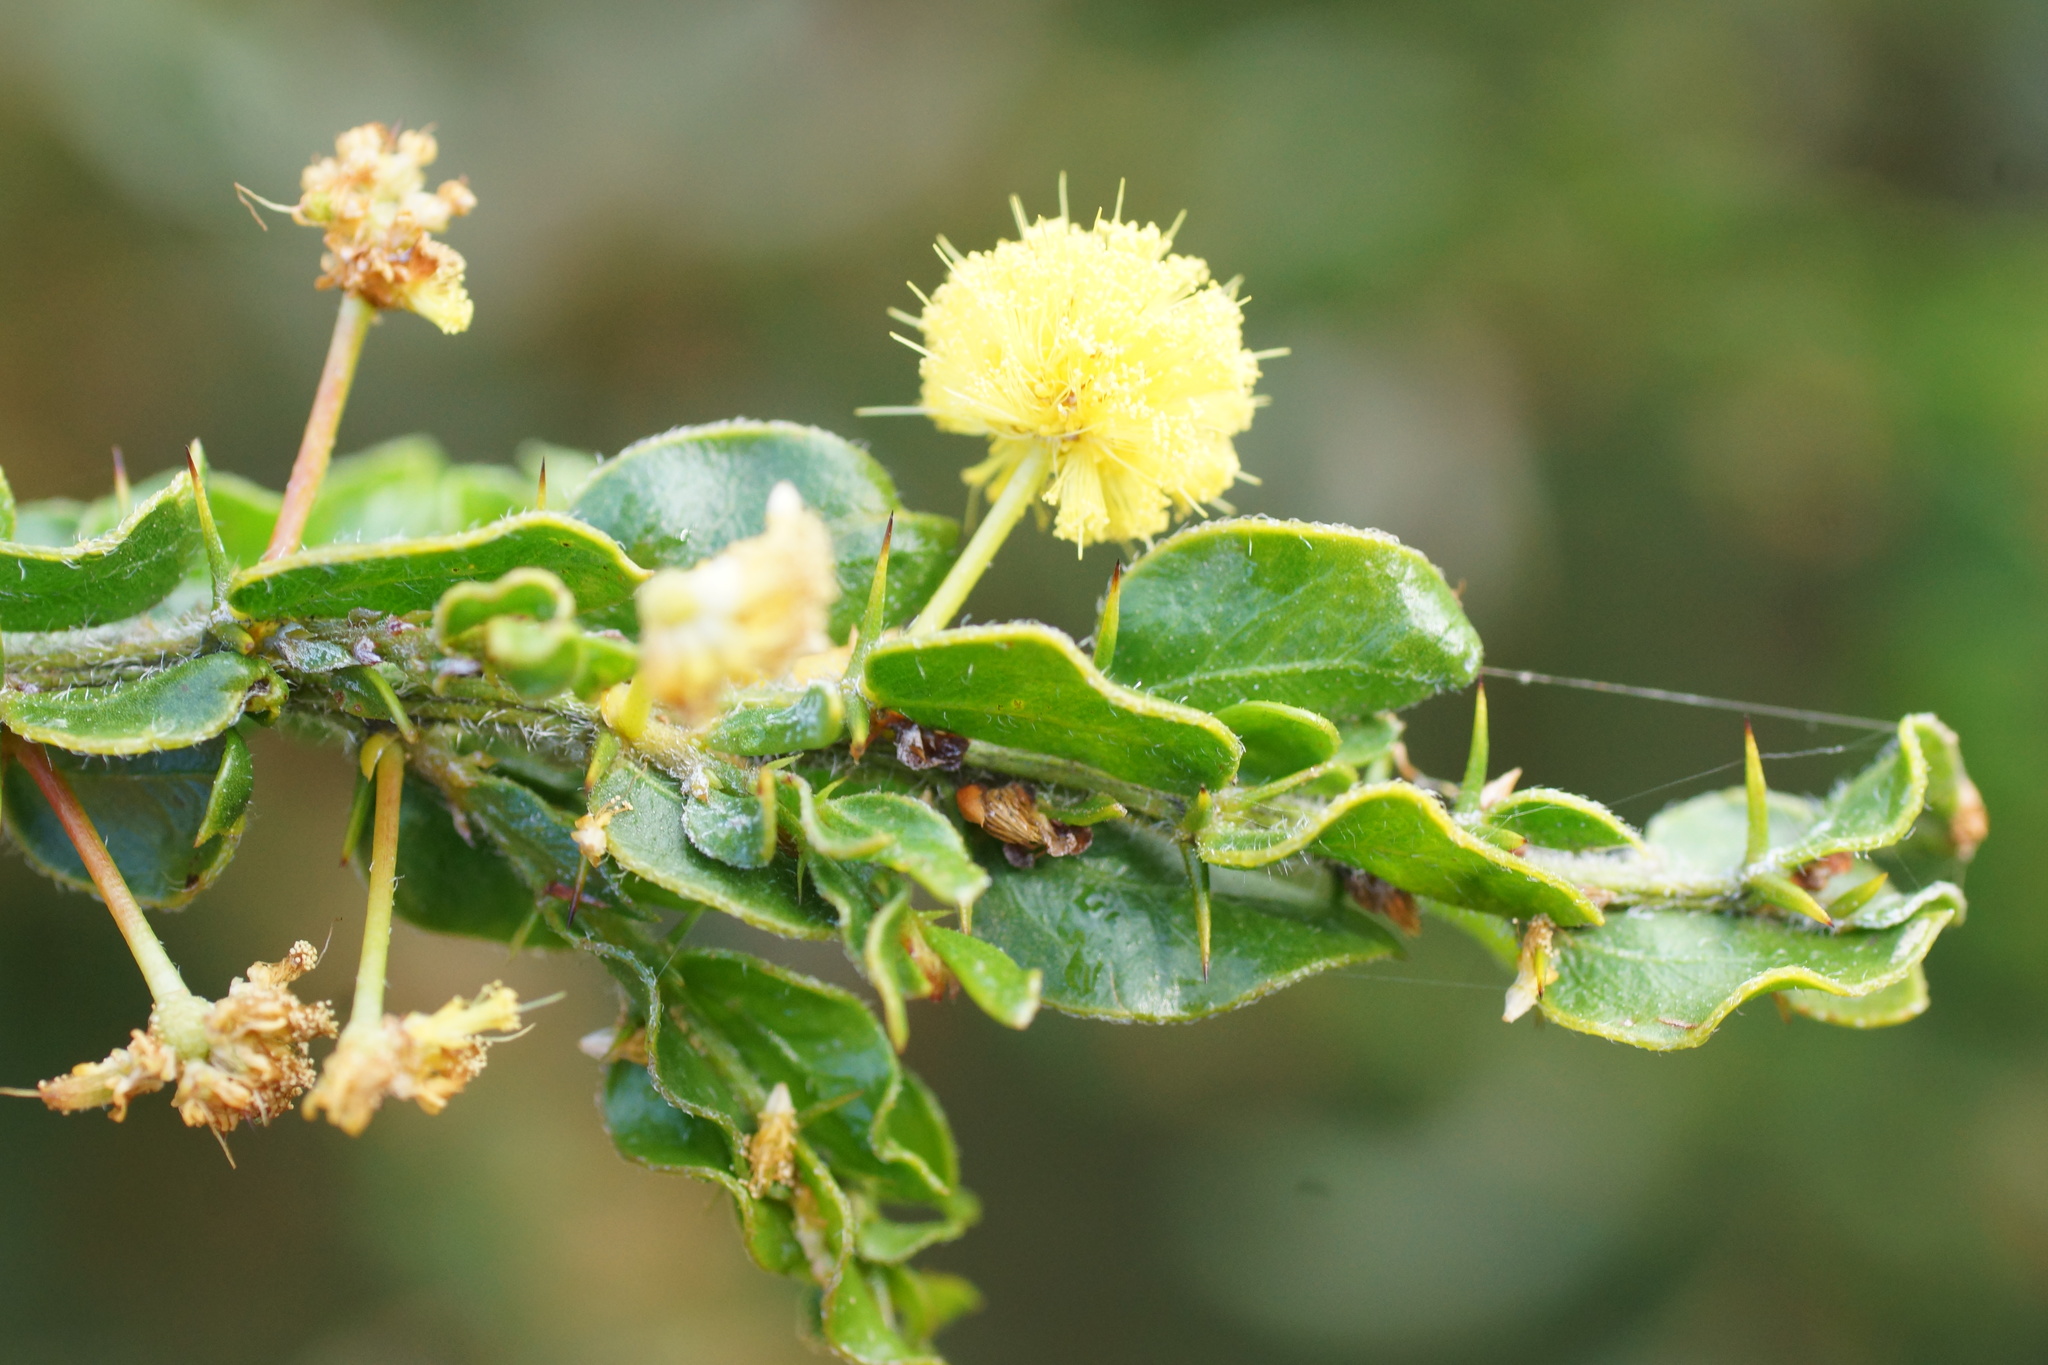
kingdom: Plantae
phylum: Tracheophyta
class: Magnoliopsida
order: Fabales
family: Fabaceae
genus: Acacia
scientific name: Acacia paradoxa
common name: Paradox acacia
